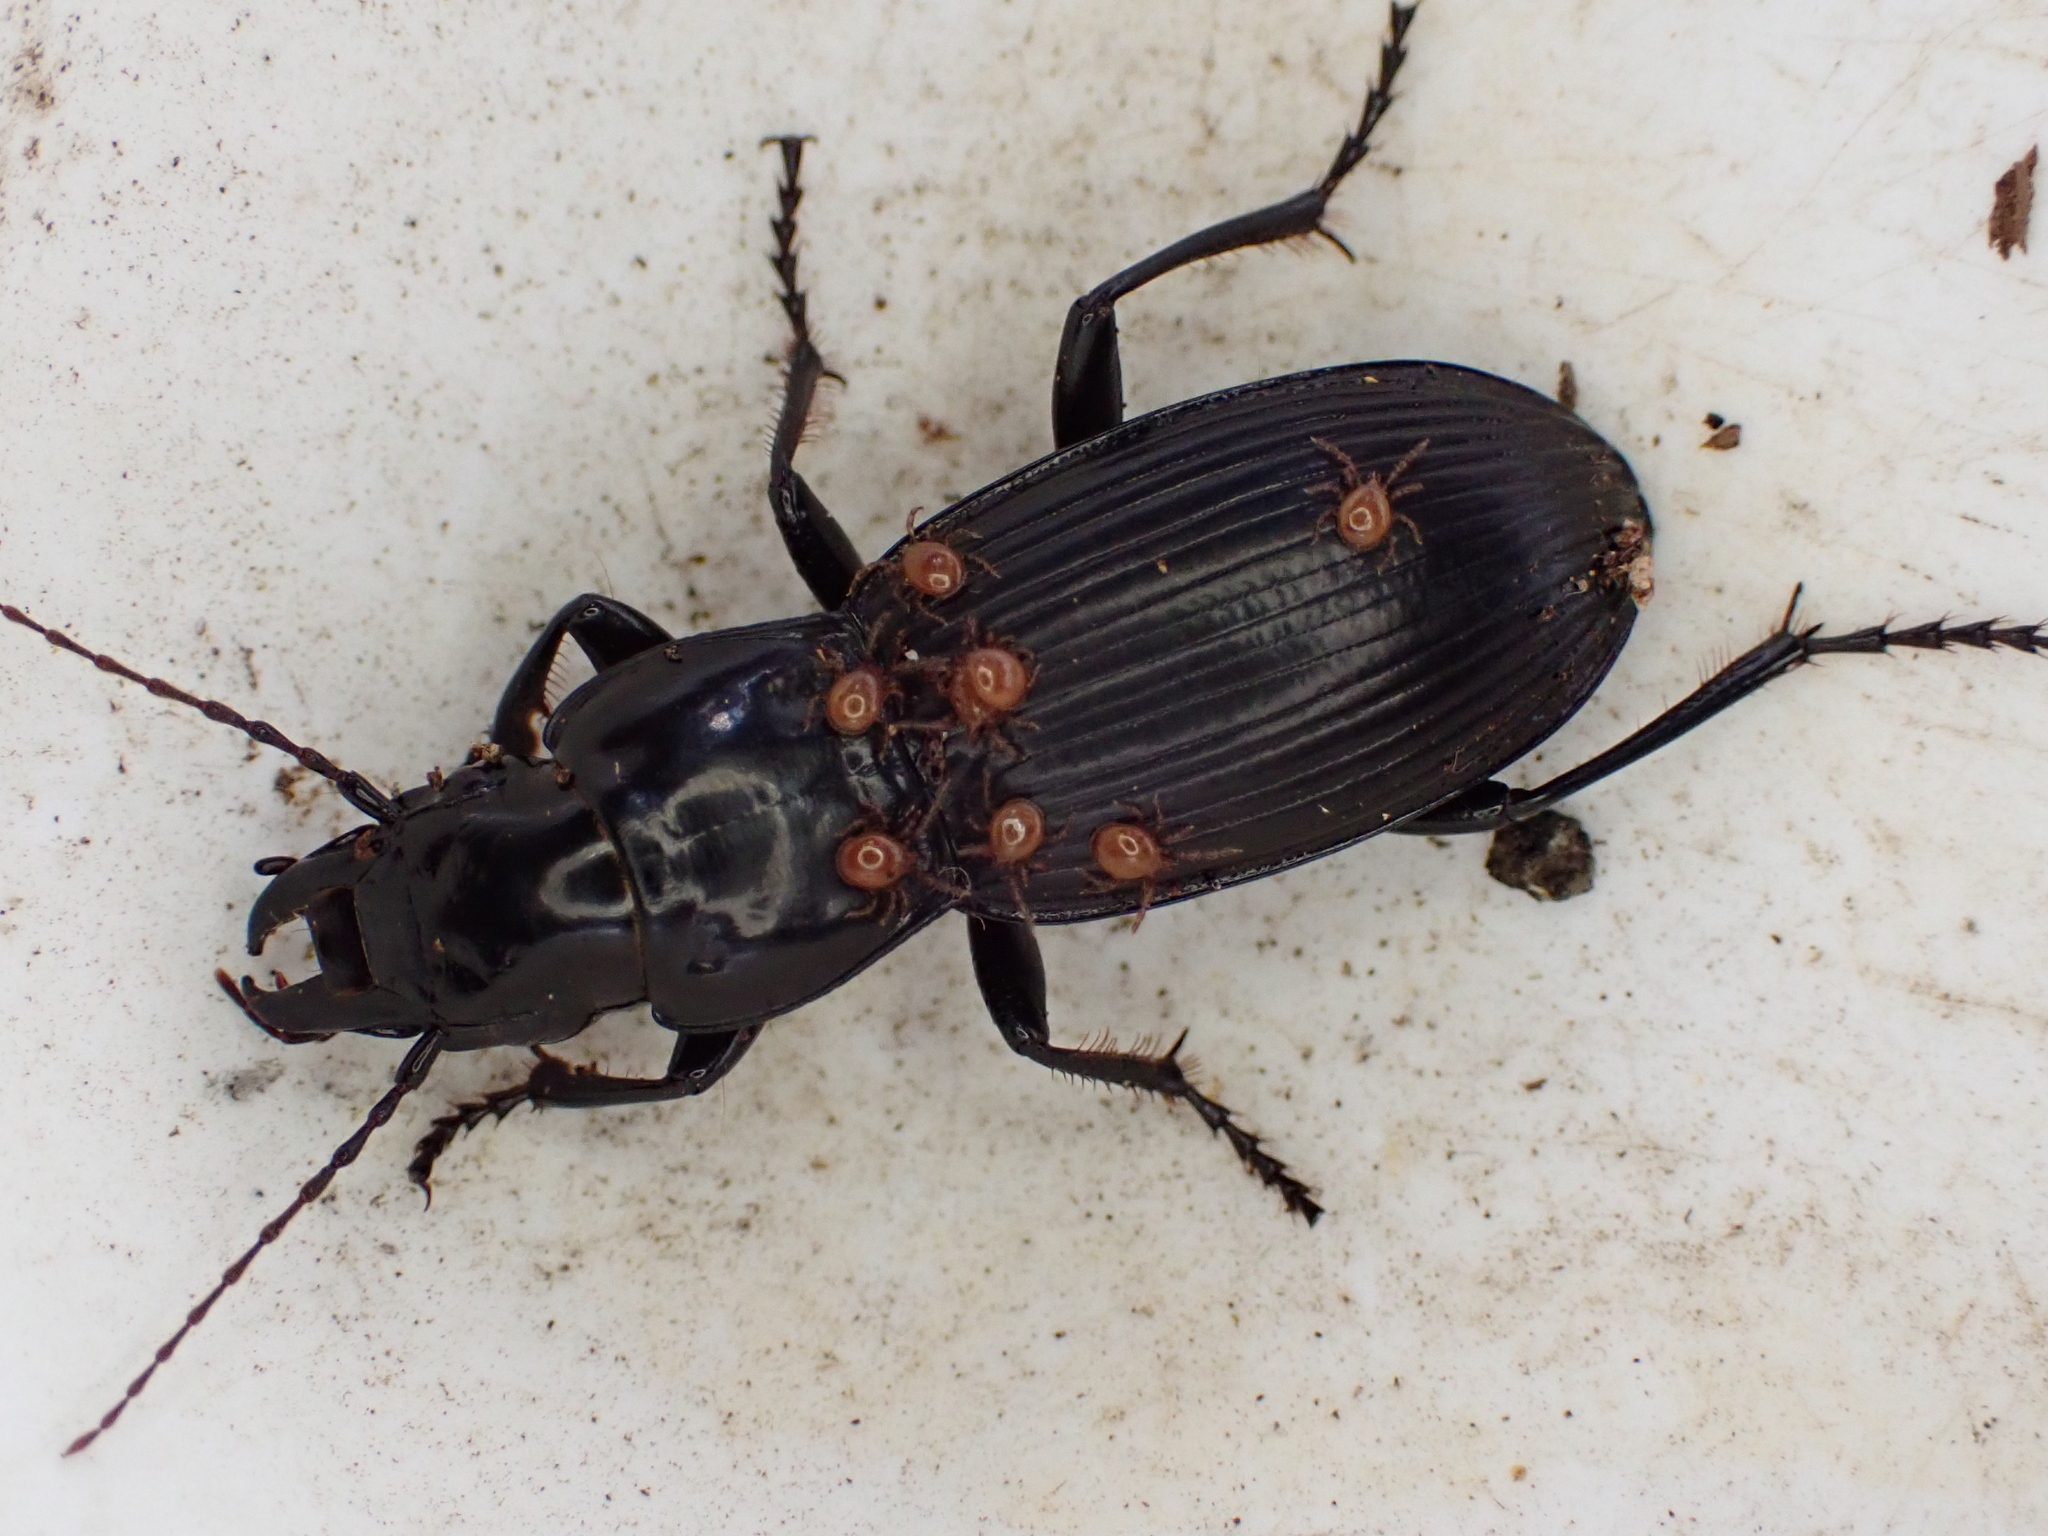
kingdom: Animalia
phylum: Arthropoda
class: Insecta
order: Coleoptera
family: Carabidae
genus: Plocamostethus
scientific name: Plocamostethus planiusculus
